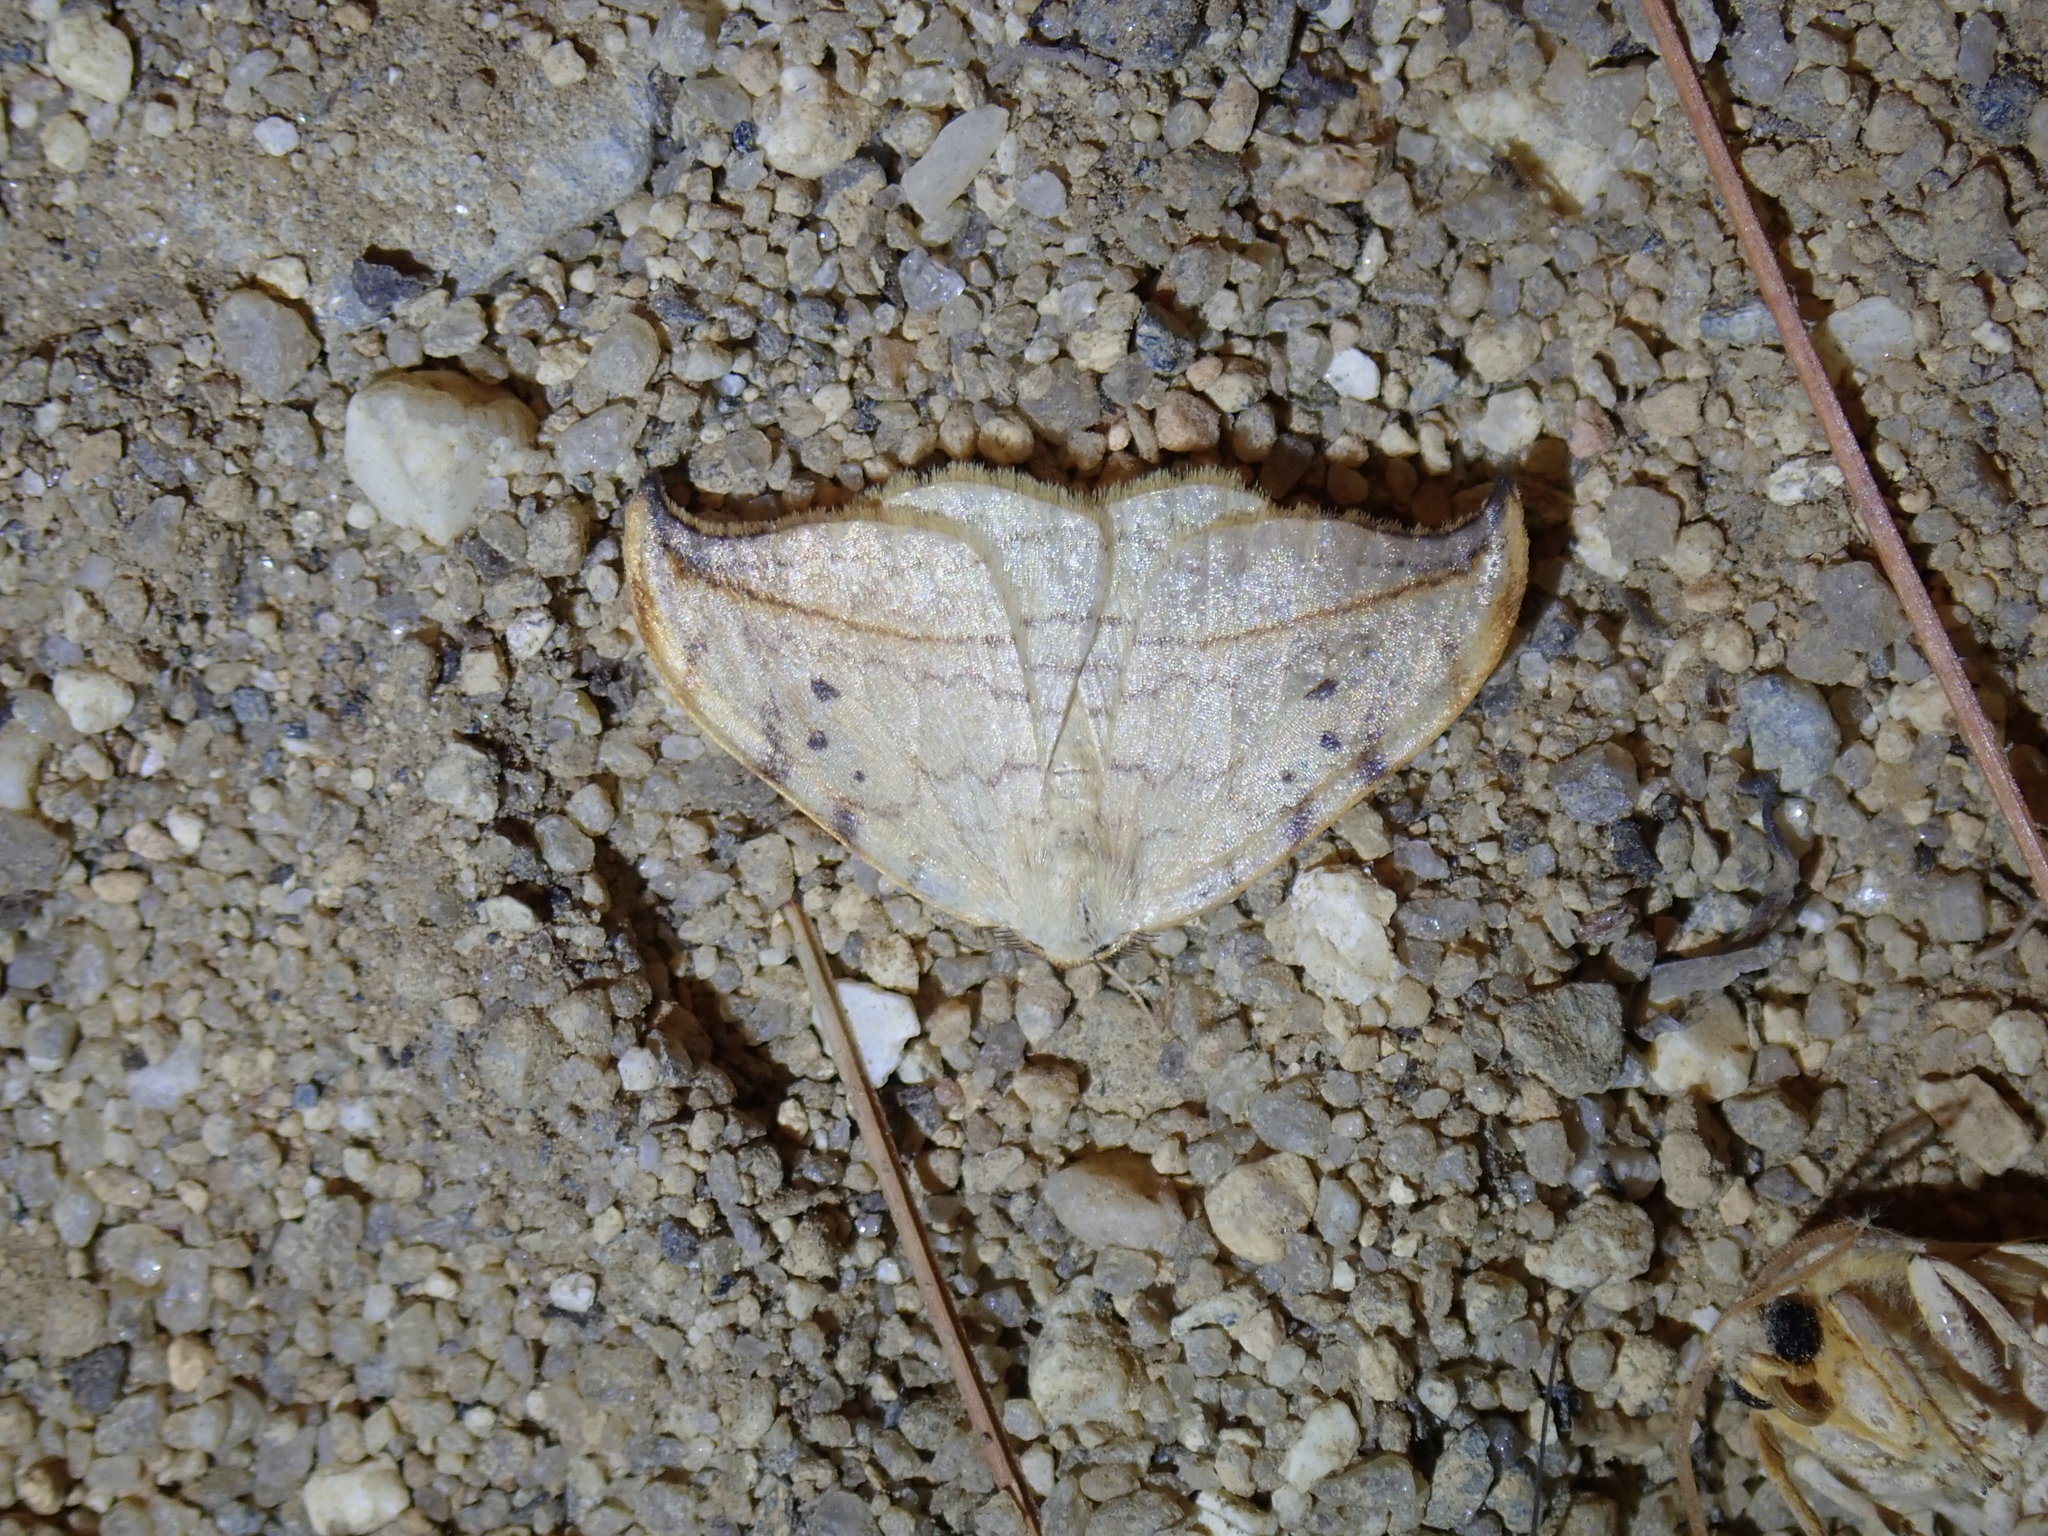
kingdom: Animalia
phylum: Arthropoda
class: Insecta
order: Lepidoptera
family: Drepanidae
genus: Drepana
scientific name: Drepana arcuata
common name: Arched hooktip moth
